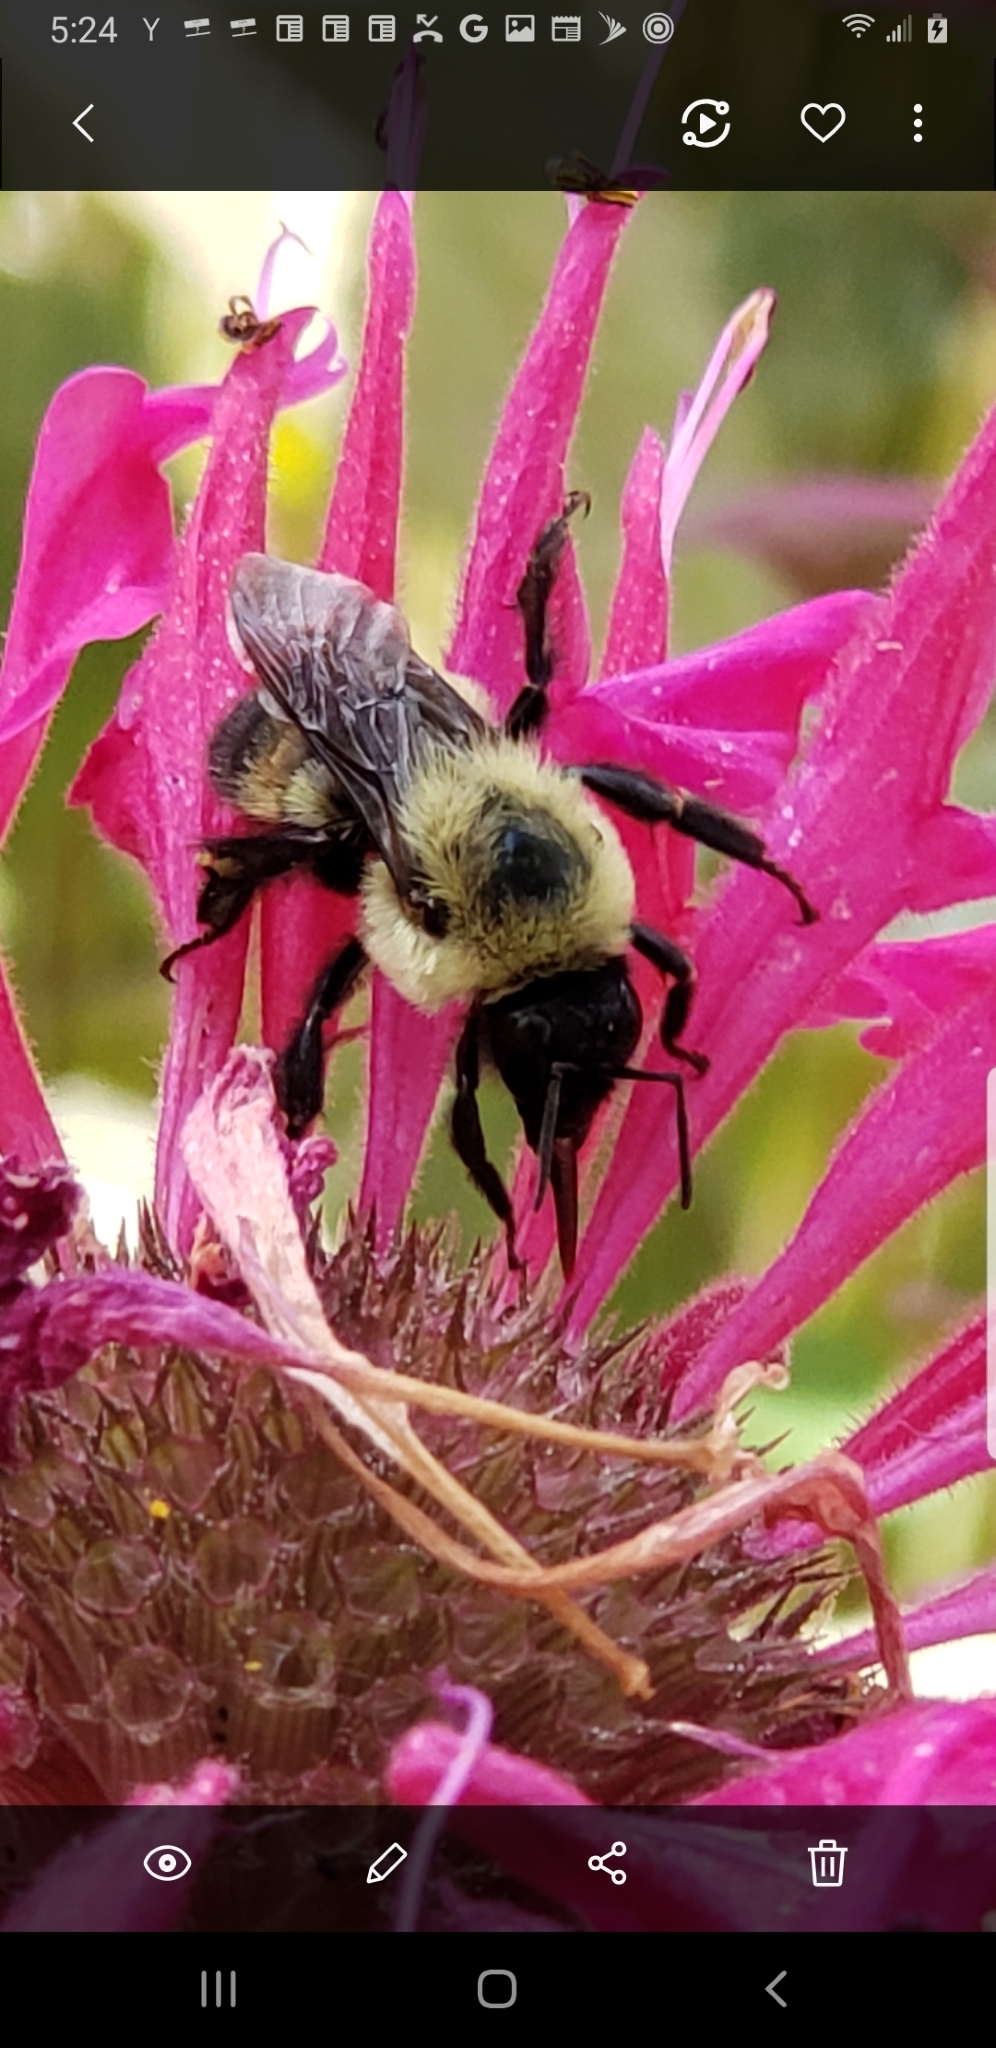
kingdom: Animalia
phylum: Arthropoda
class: Insecta
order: Hymenoptera
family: Apidae
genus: Bombus
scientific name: Bombus griseocollis
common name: Brown-belted bumble bee
